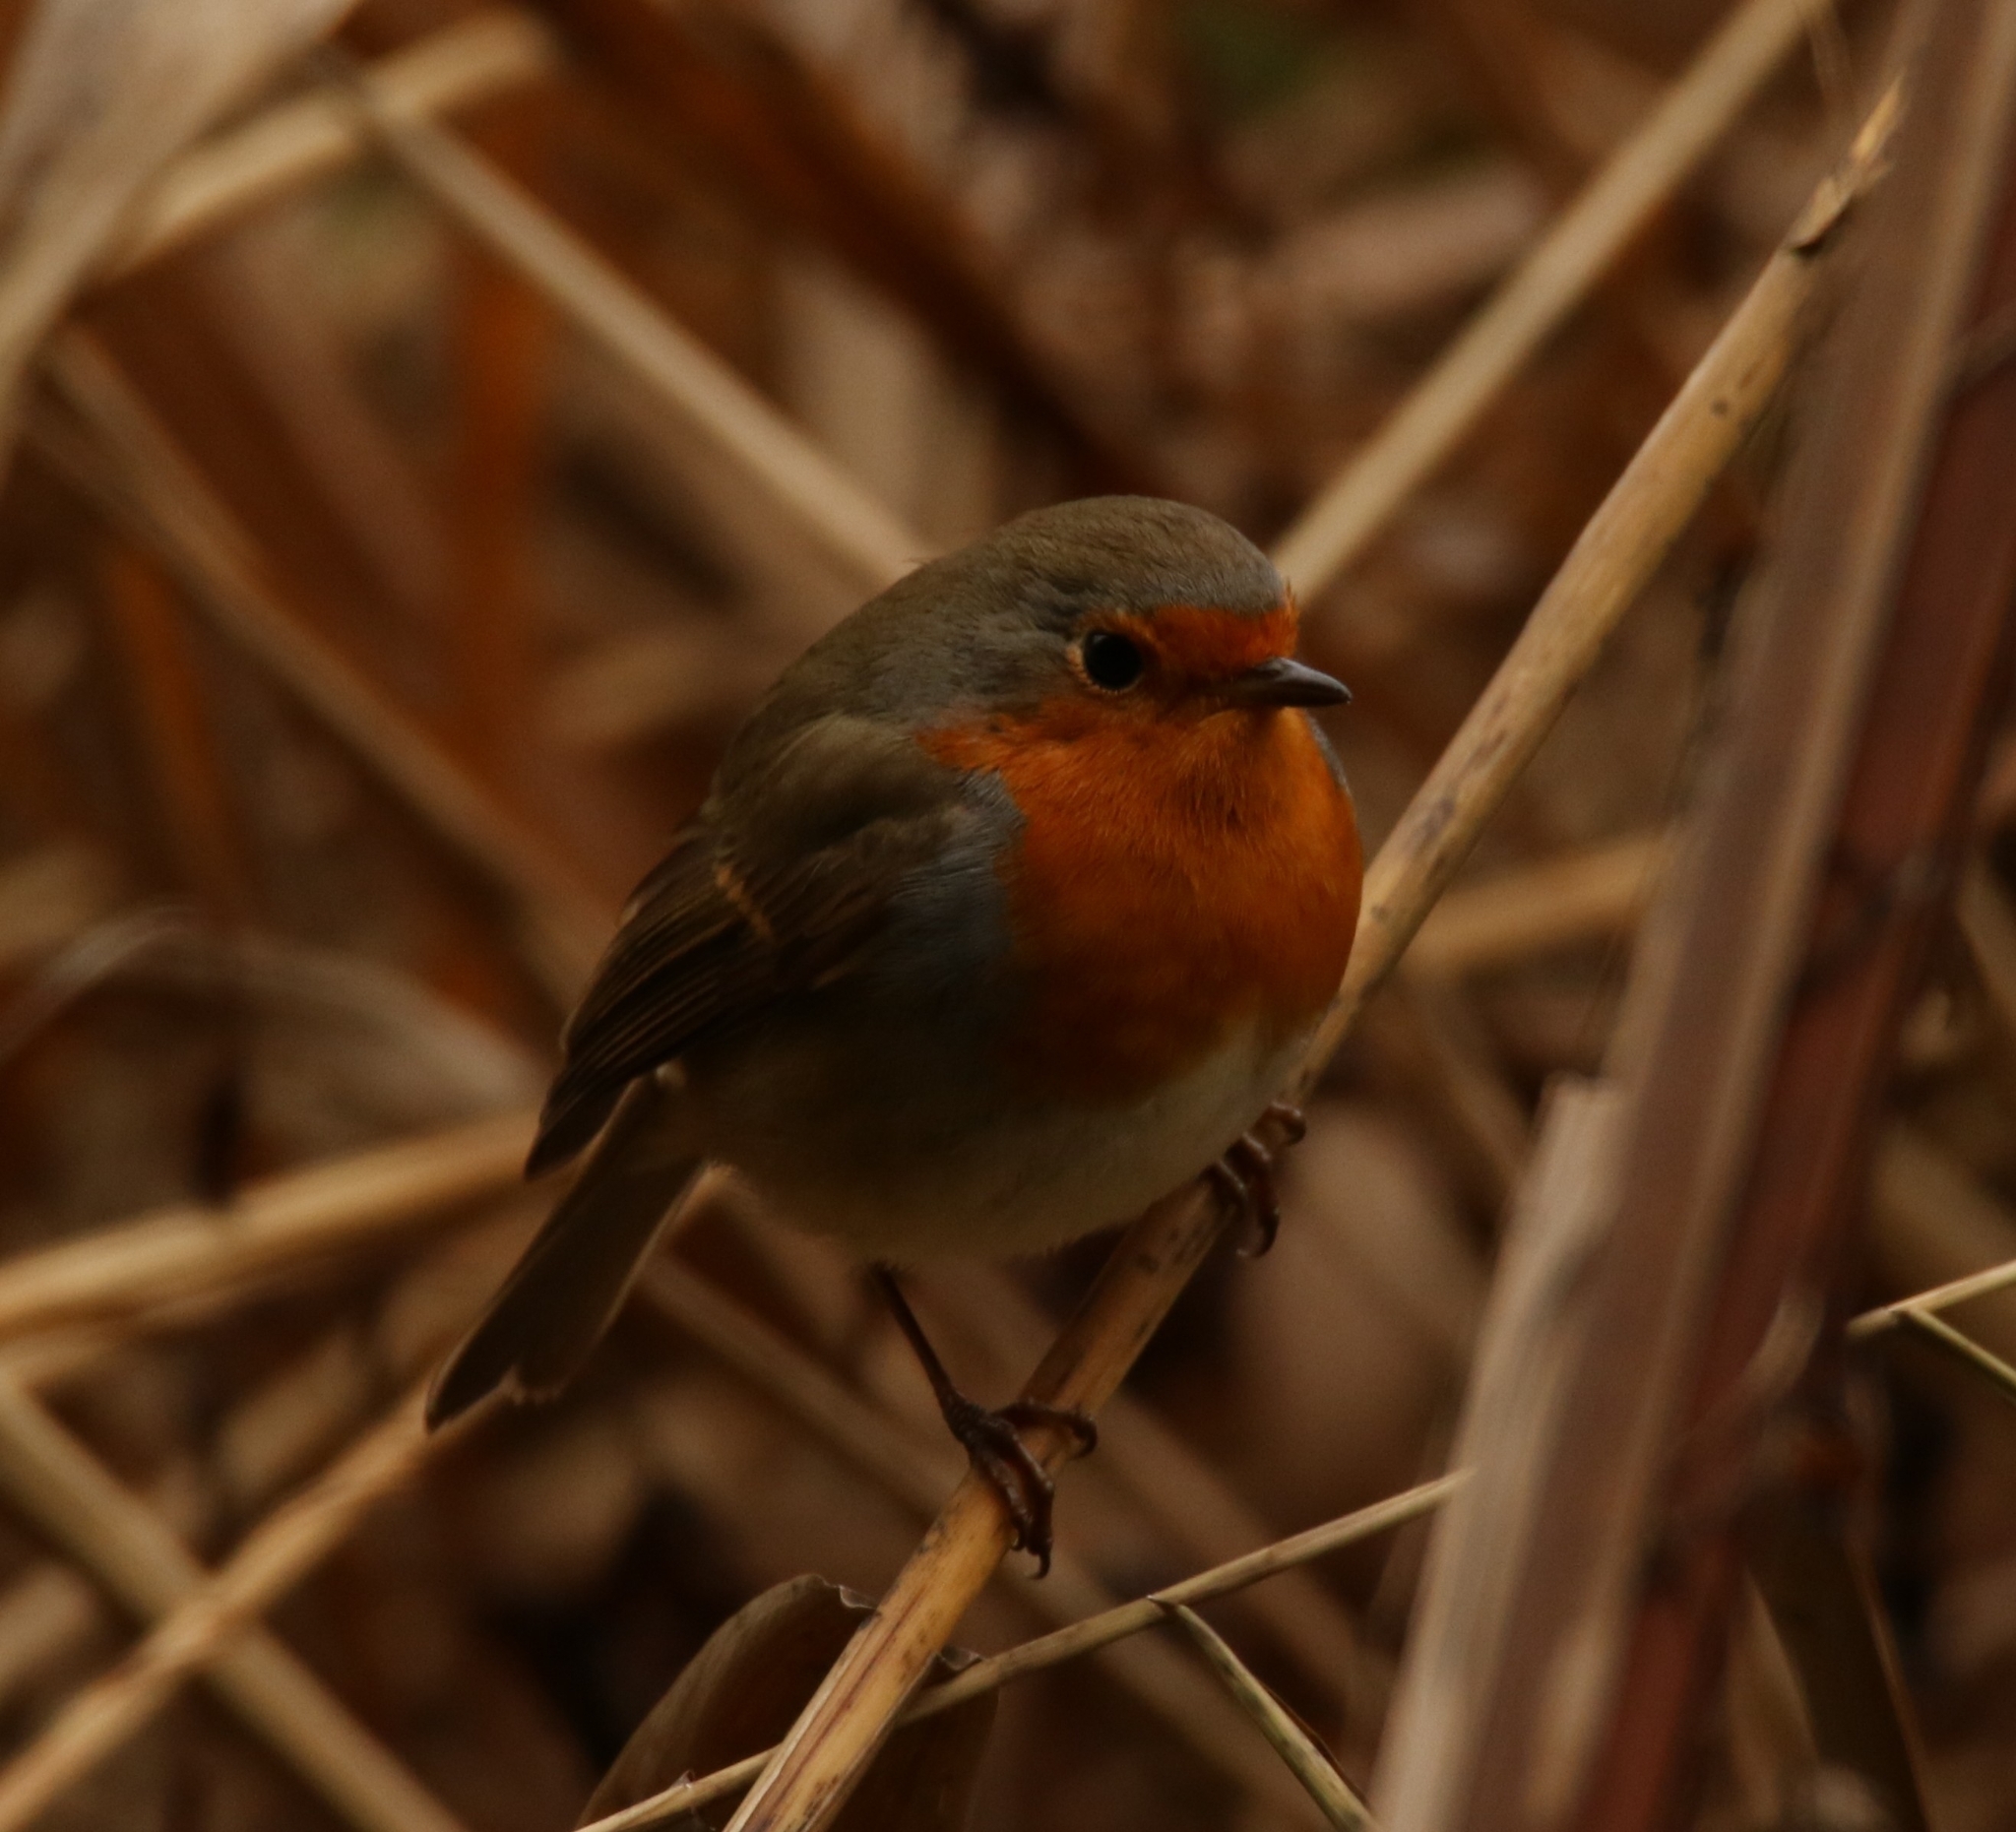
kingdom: Animalia
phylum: Chordata
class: Aves
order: Passeriformes
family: Muscicapidae
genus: Erithacus
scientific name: Erithacus rubecula
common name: European robin
